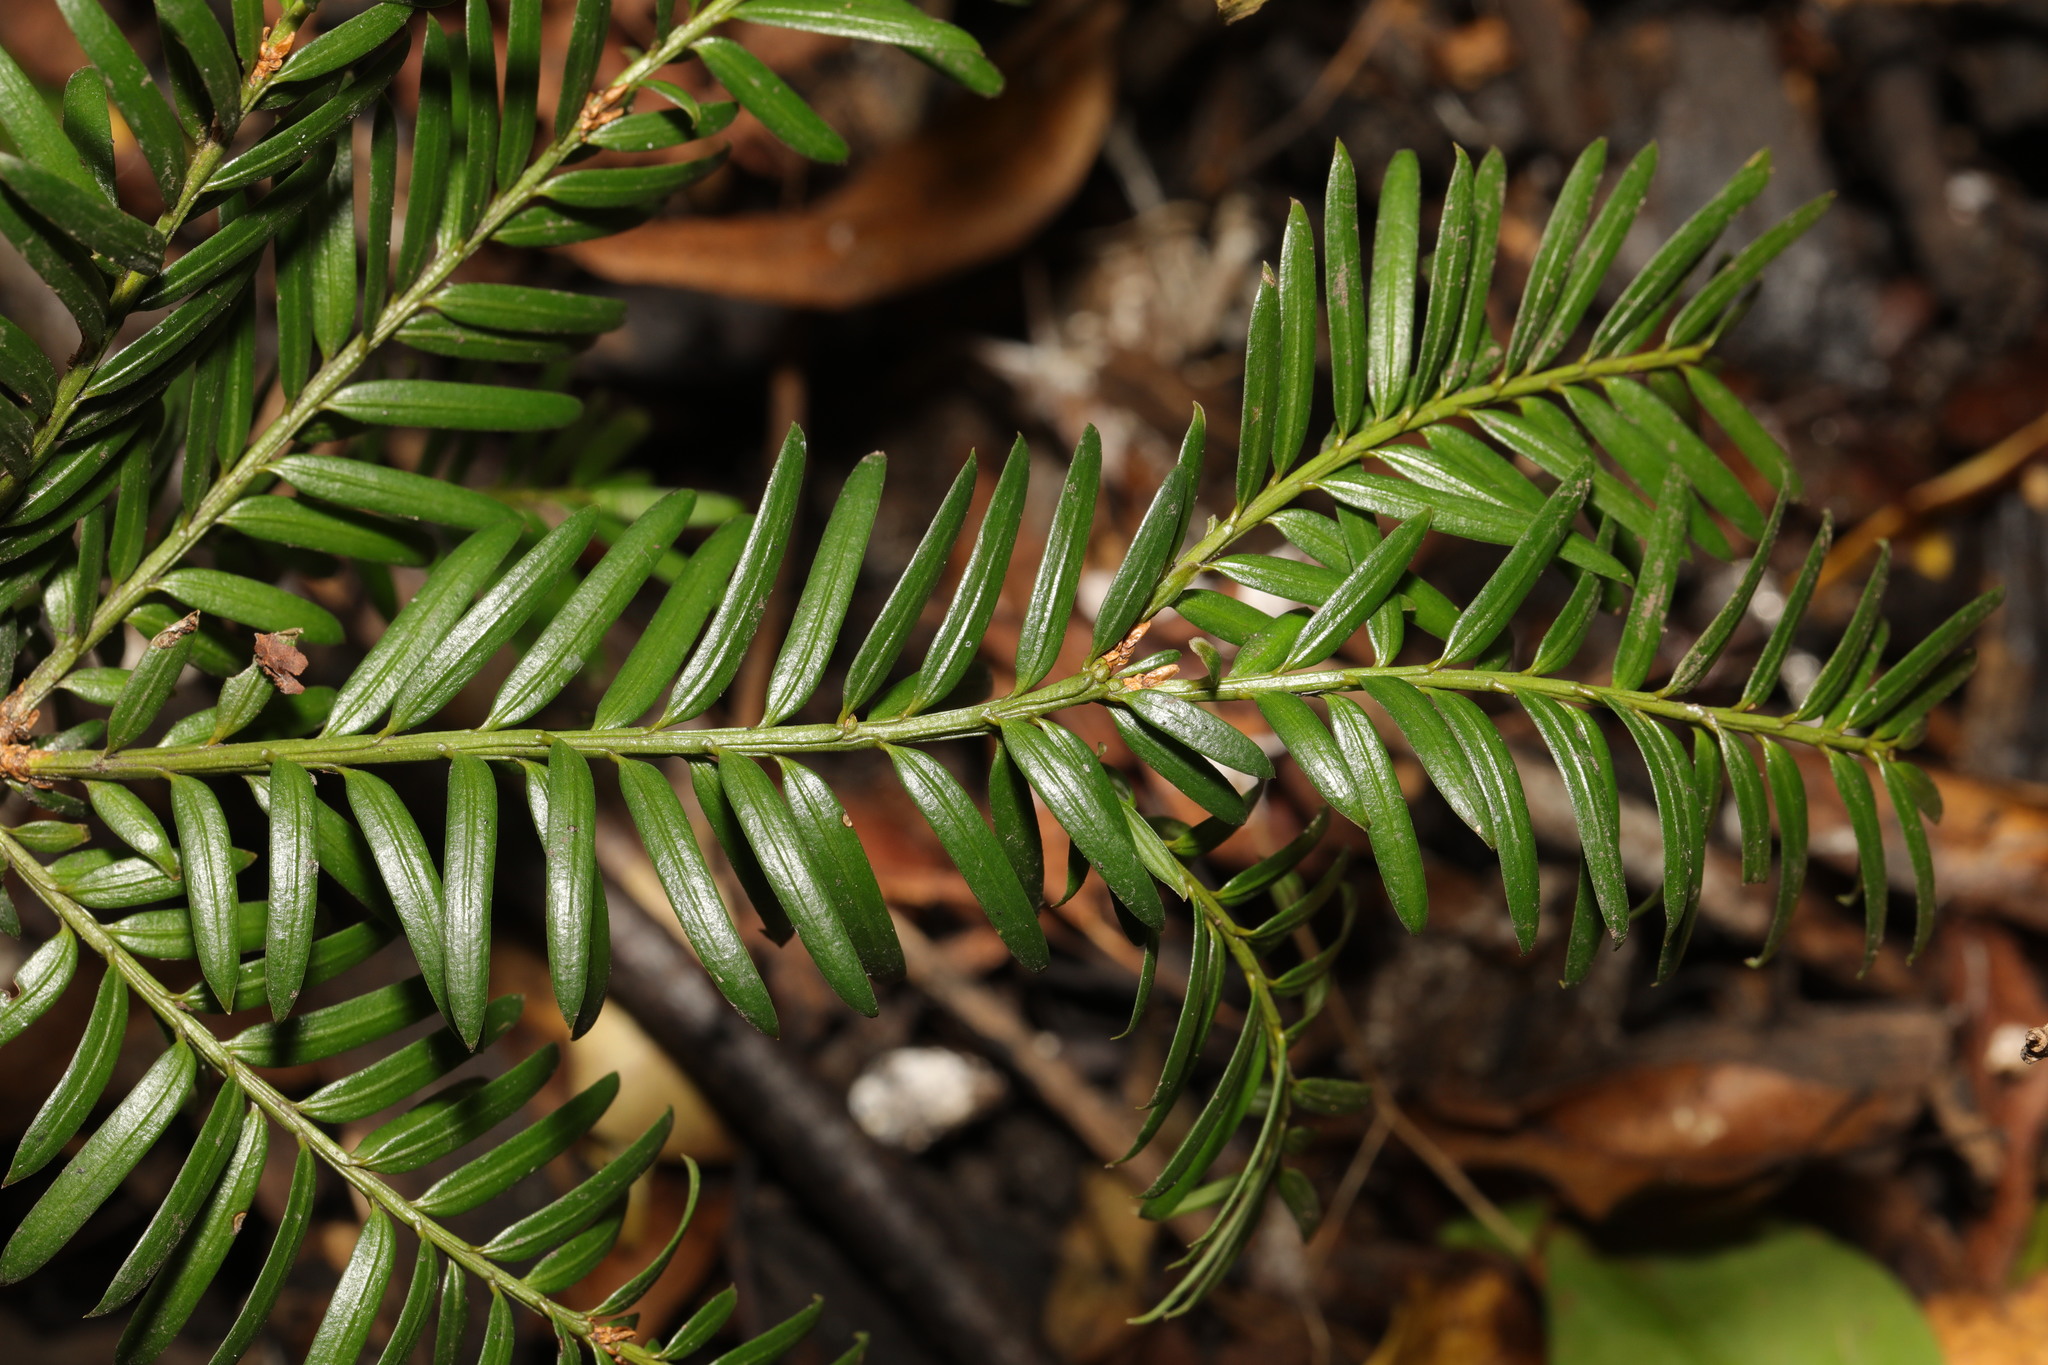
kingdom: Plantae
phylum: Tracheophyta
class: Pinopsida
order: Pinales
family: Taxaceae
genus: Taxus
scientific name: Taxus baccata
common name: Yew
